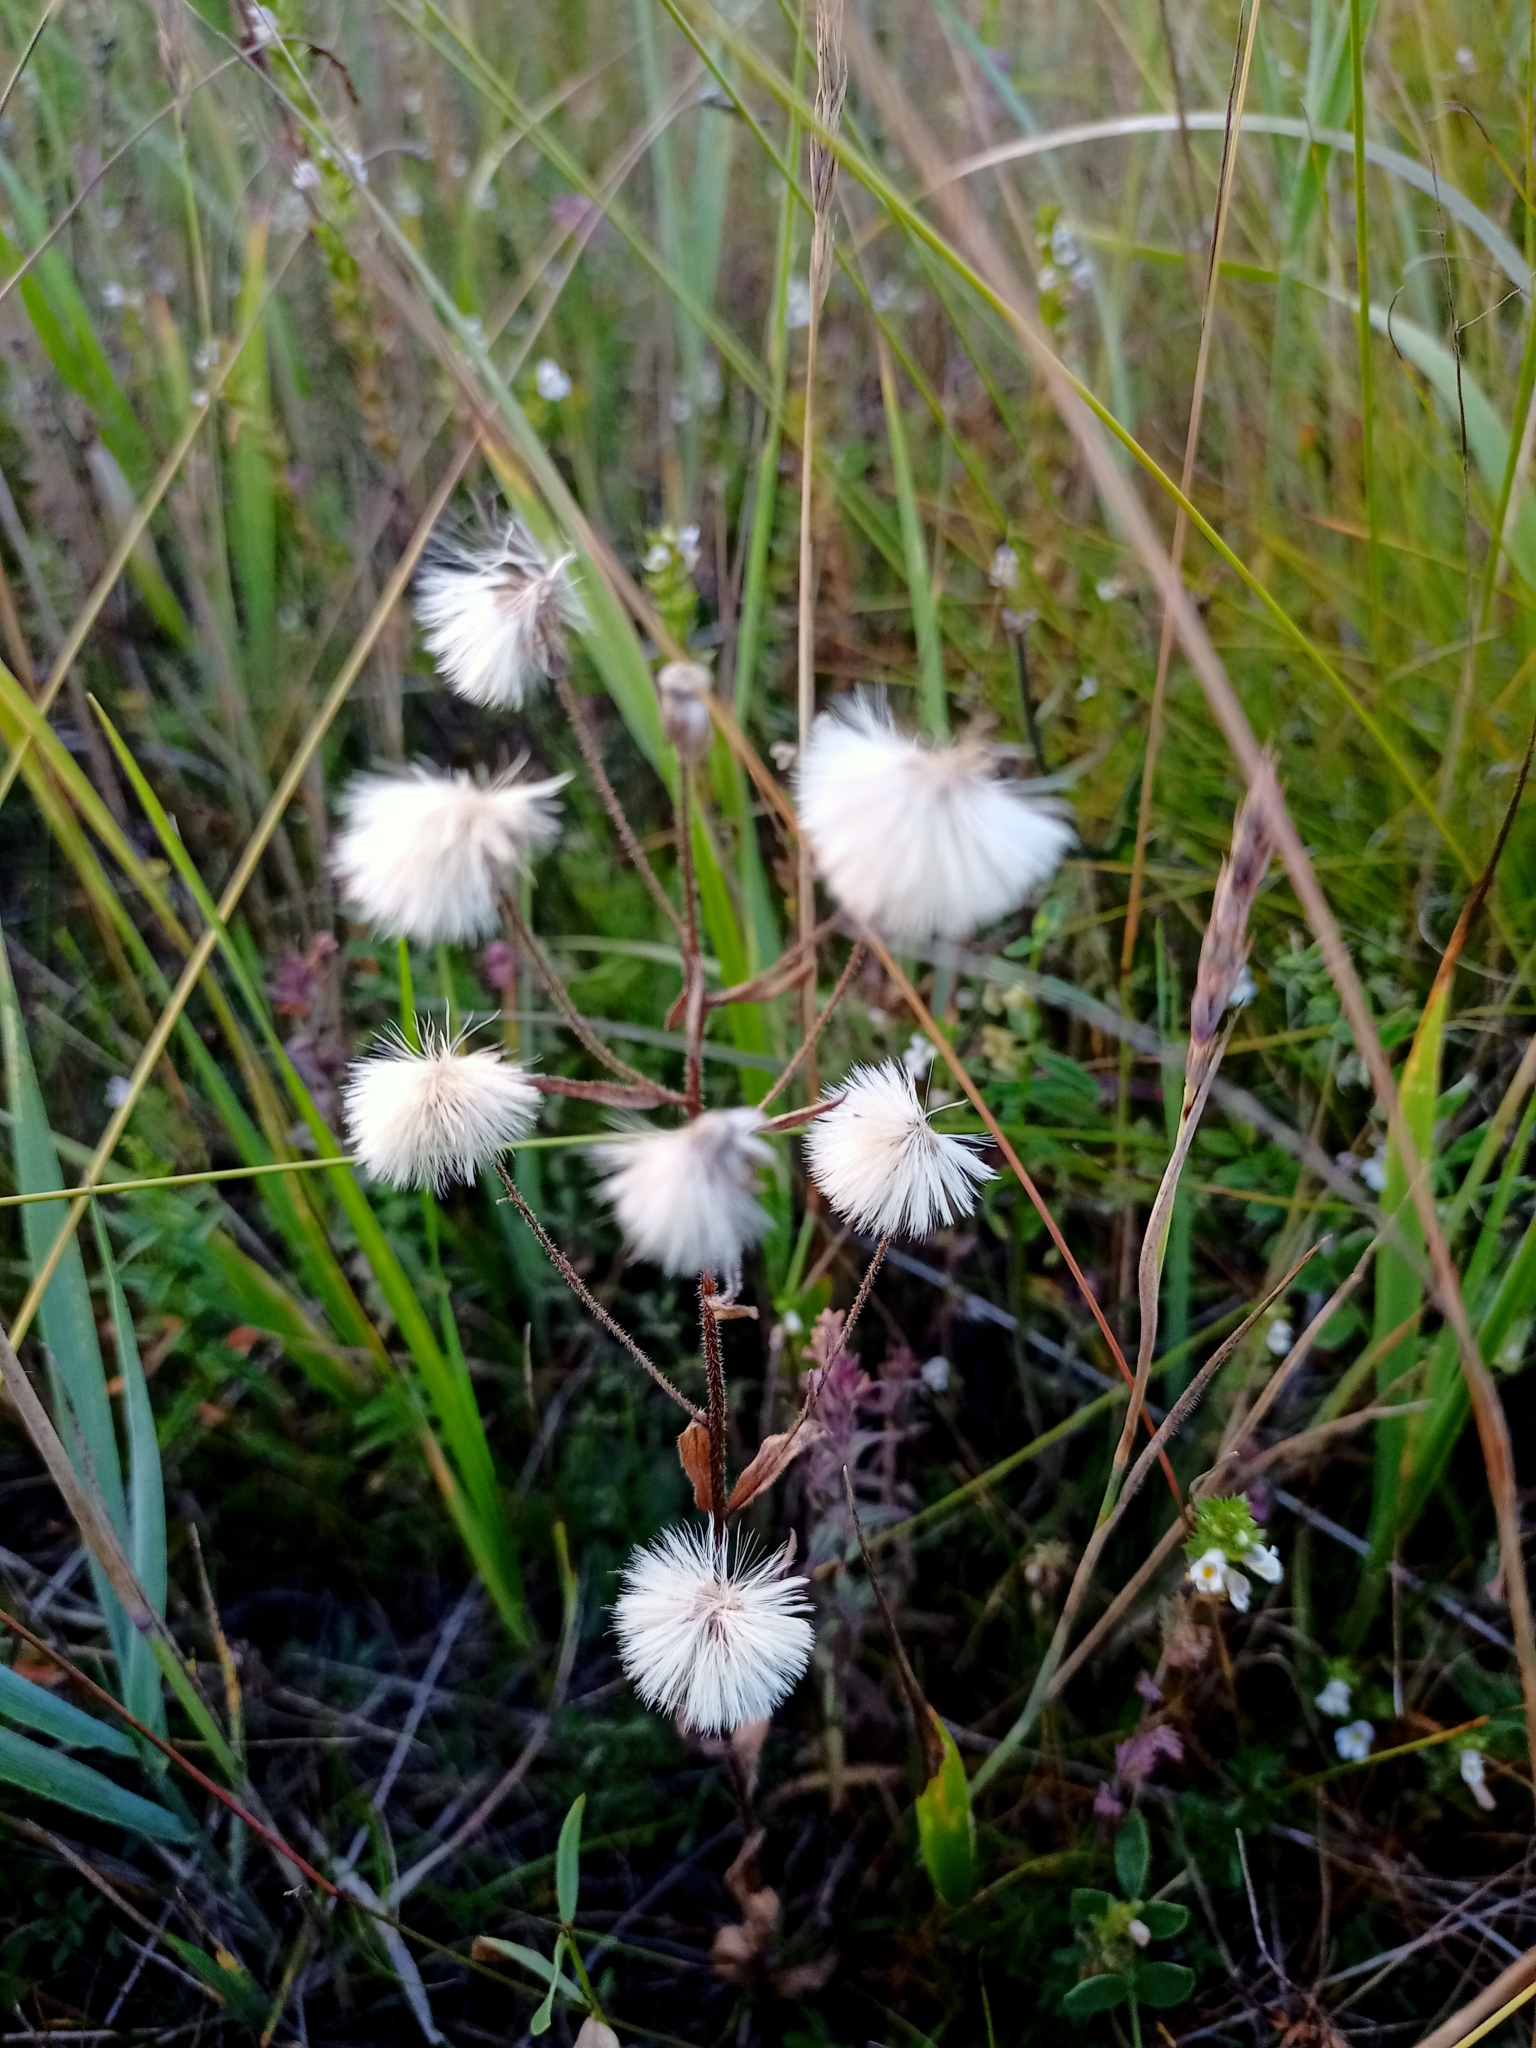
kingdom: Plantae
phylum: Tracheophyta
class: Magnoliopsida
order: Asterales
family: Asteraceae
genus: Erigeron
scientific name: Erigeron acris
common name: Blue fleabane
